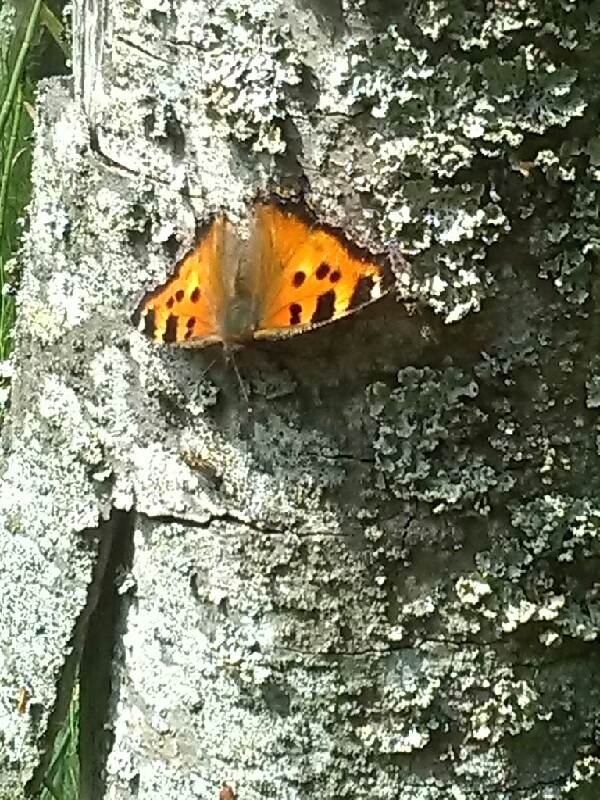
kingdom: Animalia
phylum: Arthropoda
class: Insecta
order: Lepidoptera
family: Nymphalidae
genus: Nymphalis
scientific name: Nymphalis xanthomelas
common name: Scarce tortoiseshell
